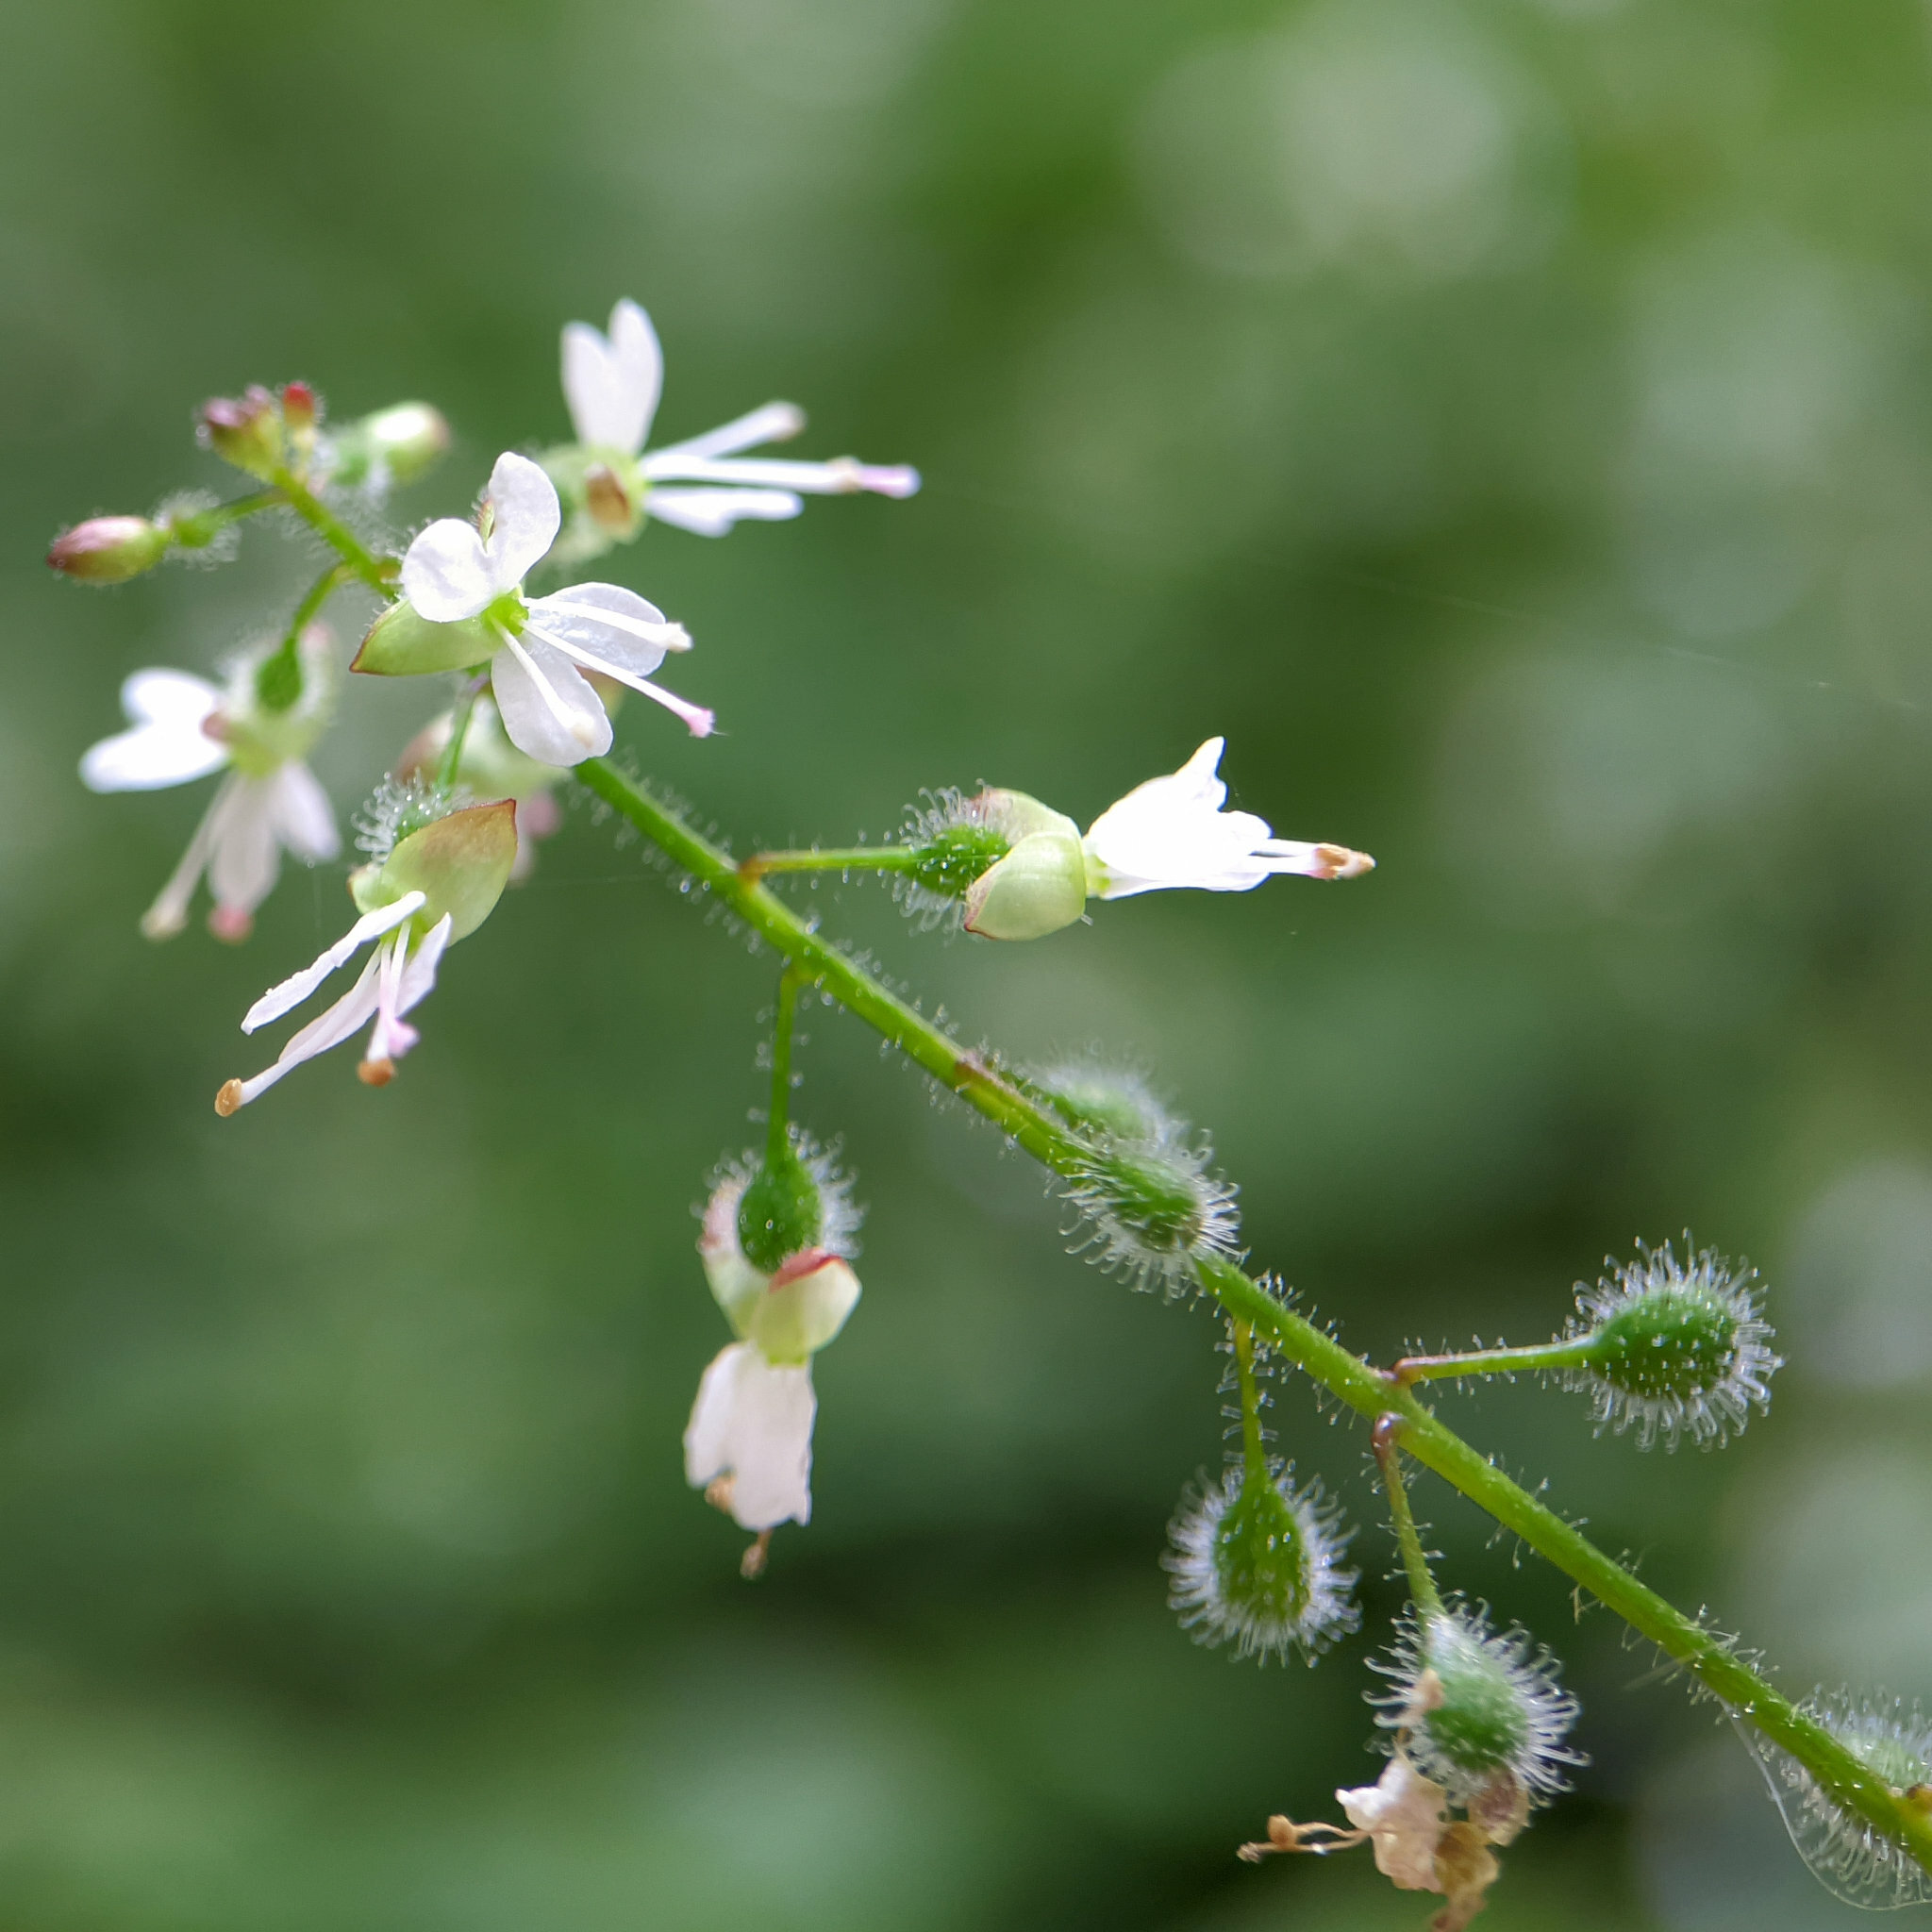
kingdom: Plantae
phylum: Tracheophyta
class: Magnoliopsida
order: Myrtales
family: Onagraceae
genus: Circaea
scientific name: Circaea lutetiana
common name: Enchanter's-nightshade
